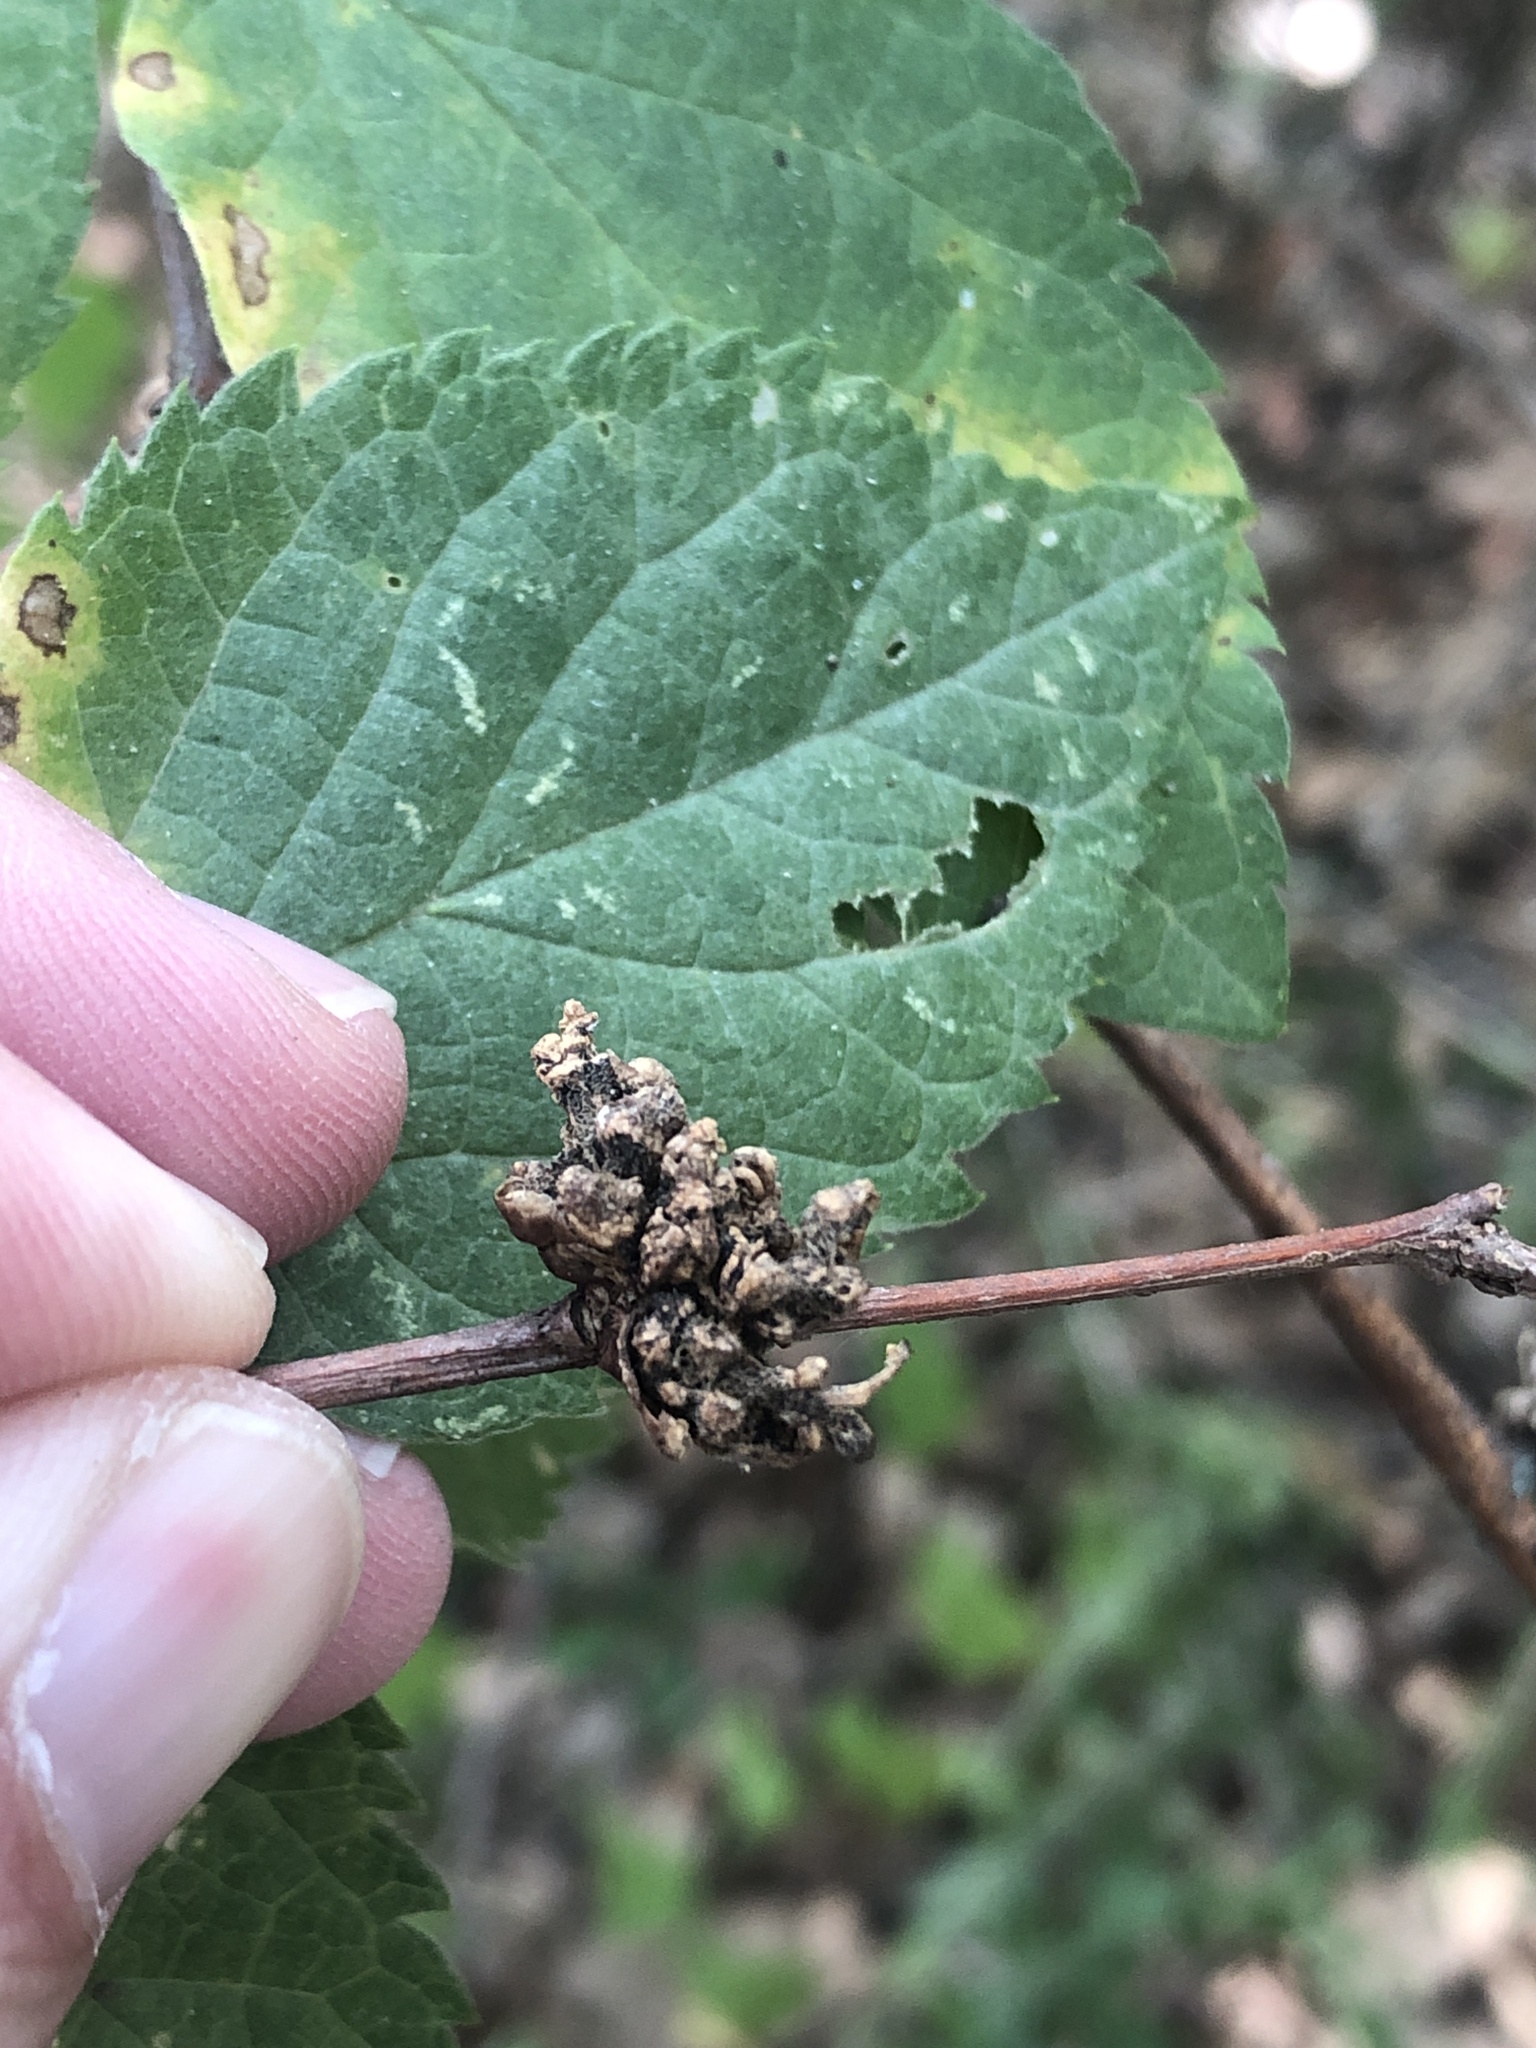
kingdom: Animalia
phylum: Arthropoda
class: Arachnida
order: Trombidiformes
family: Eriophyidae
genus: Aceria
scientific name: Aceria
